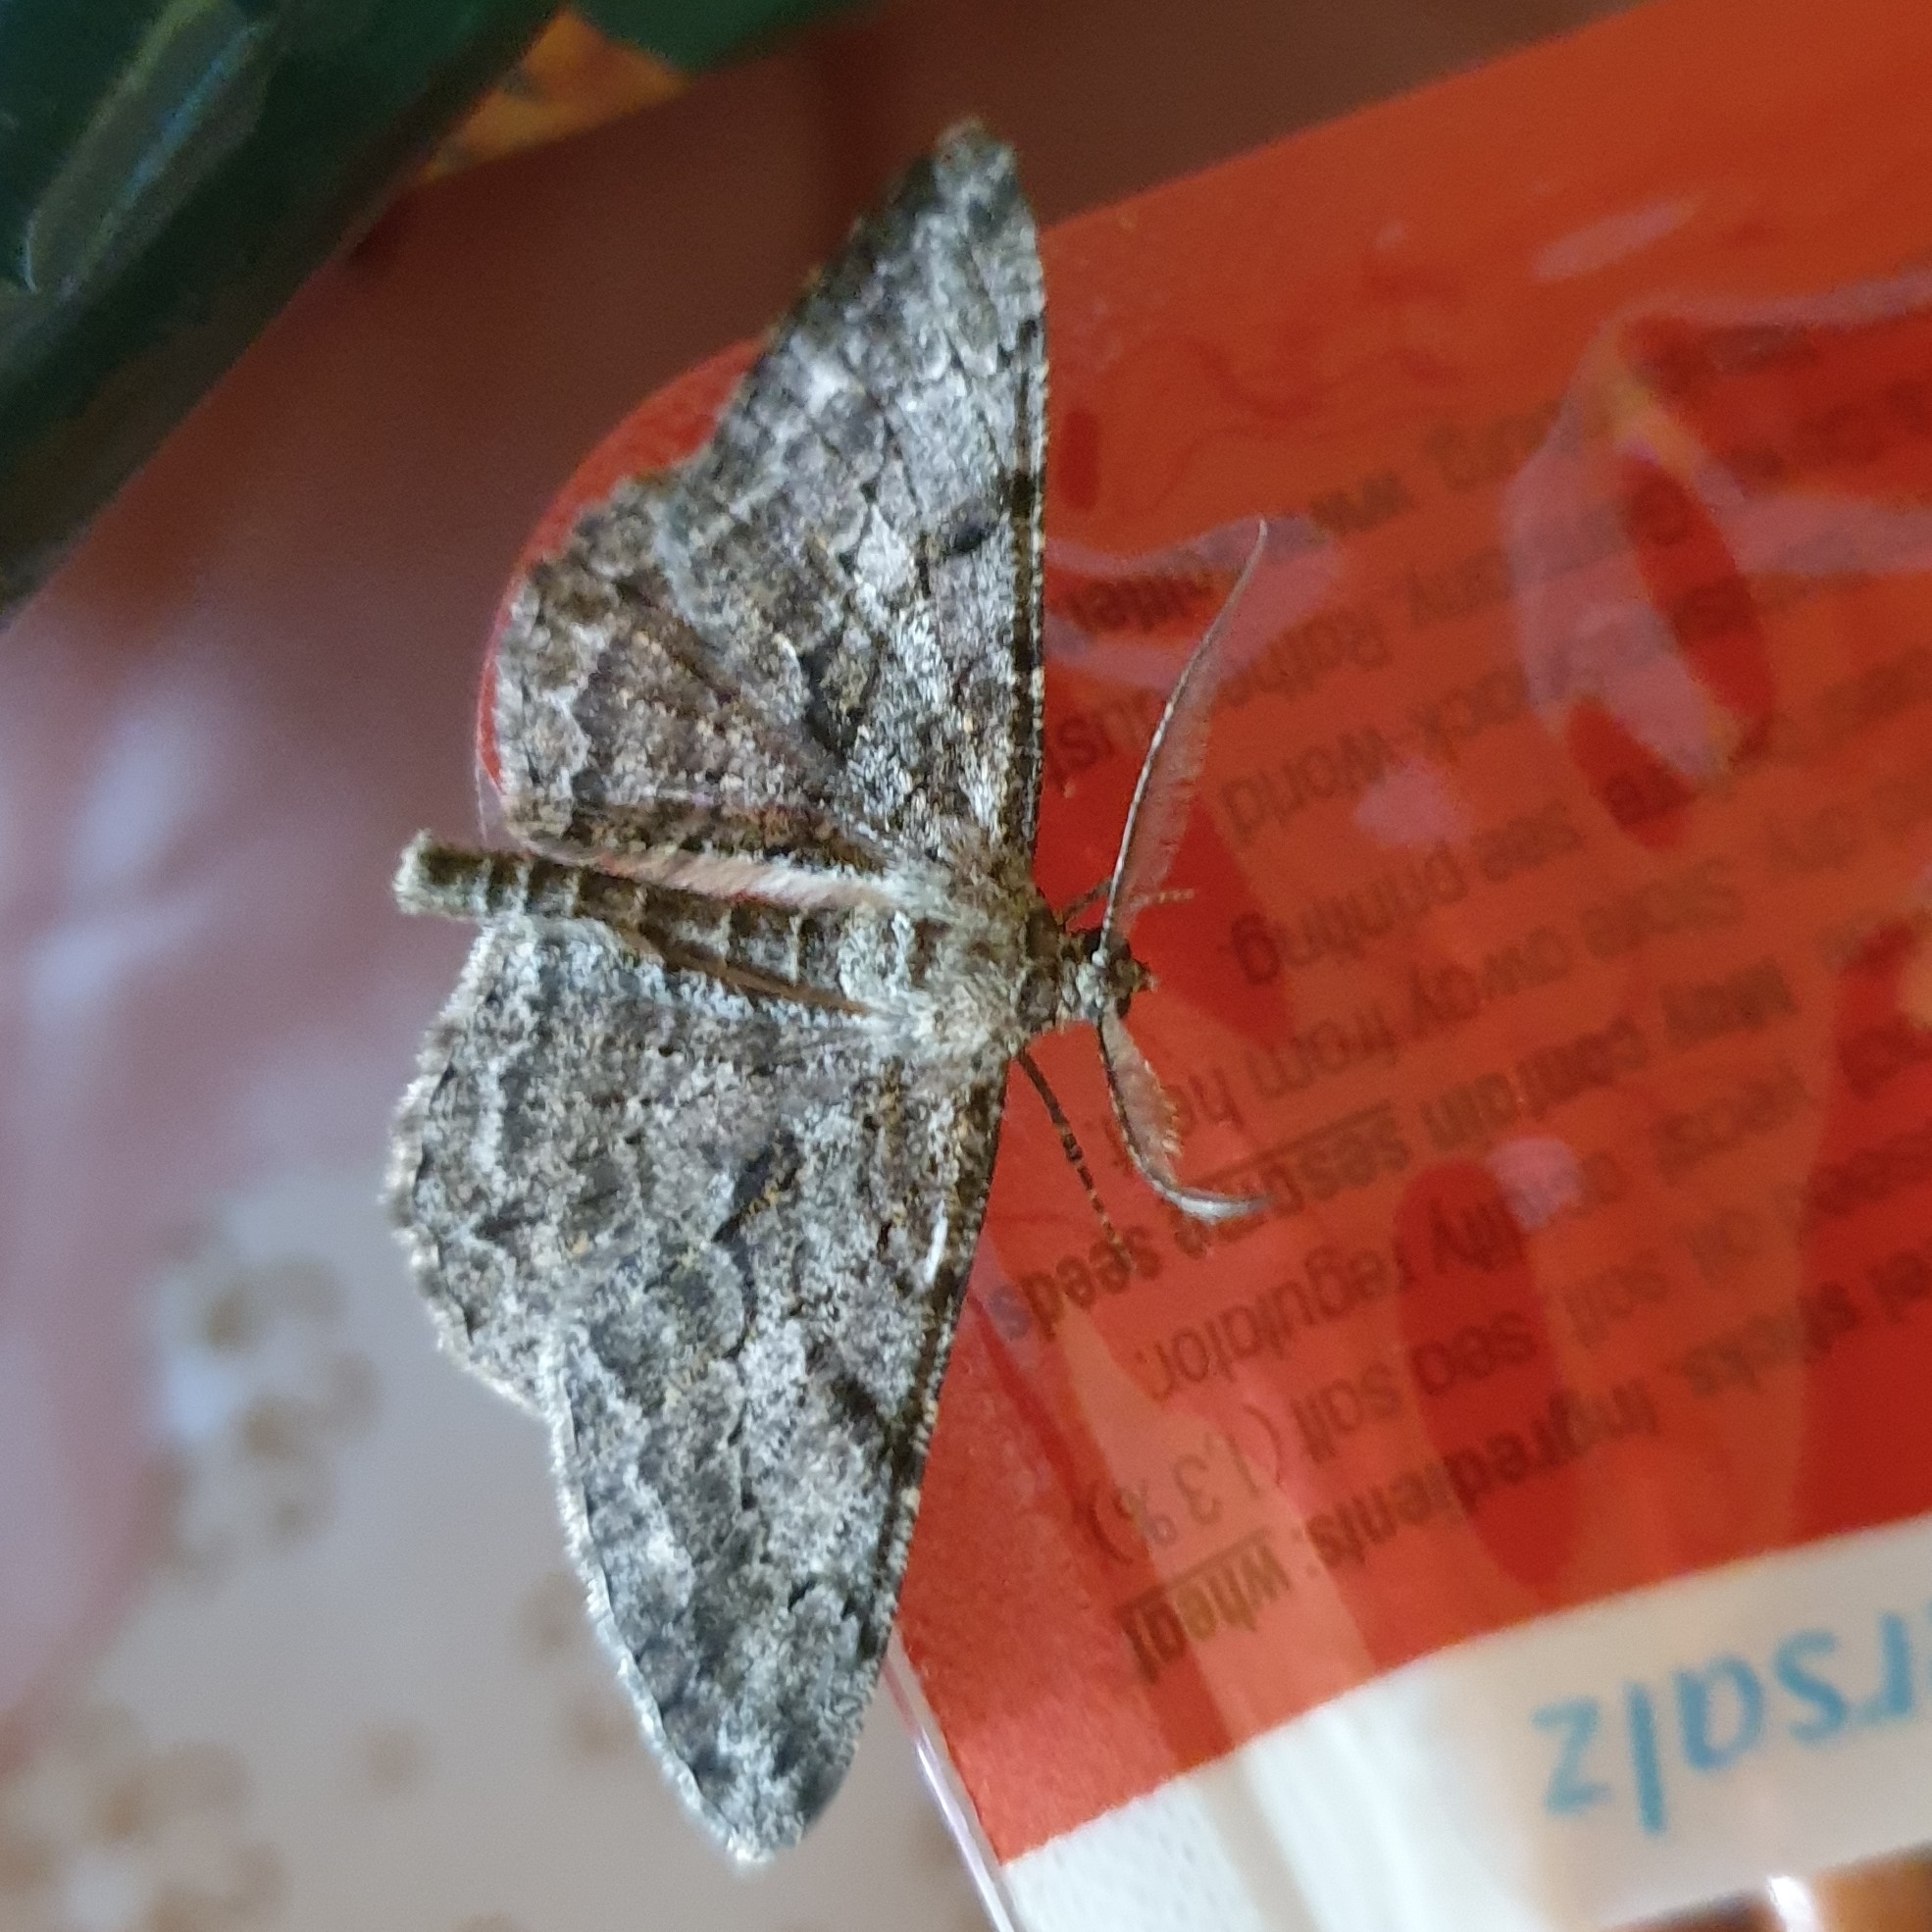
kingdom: Animalia
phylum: Arthropoda
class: Insecta
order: Lepidoptera
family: Geometridae
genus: Peribatodes
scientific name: Peribatodes rhomboidaria
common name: Willow beauty
